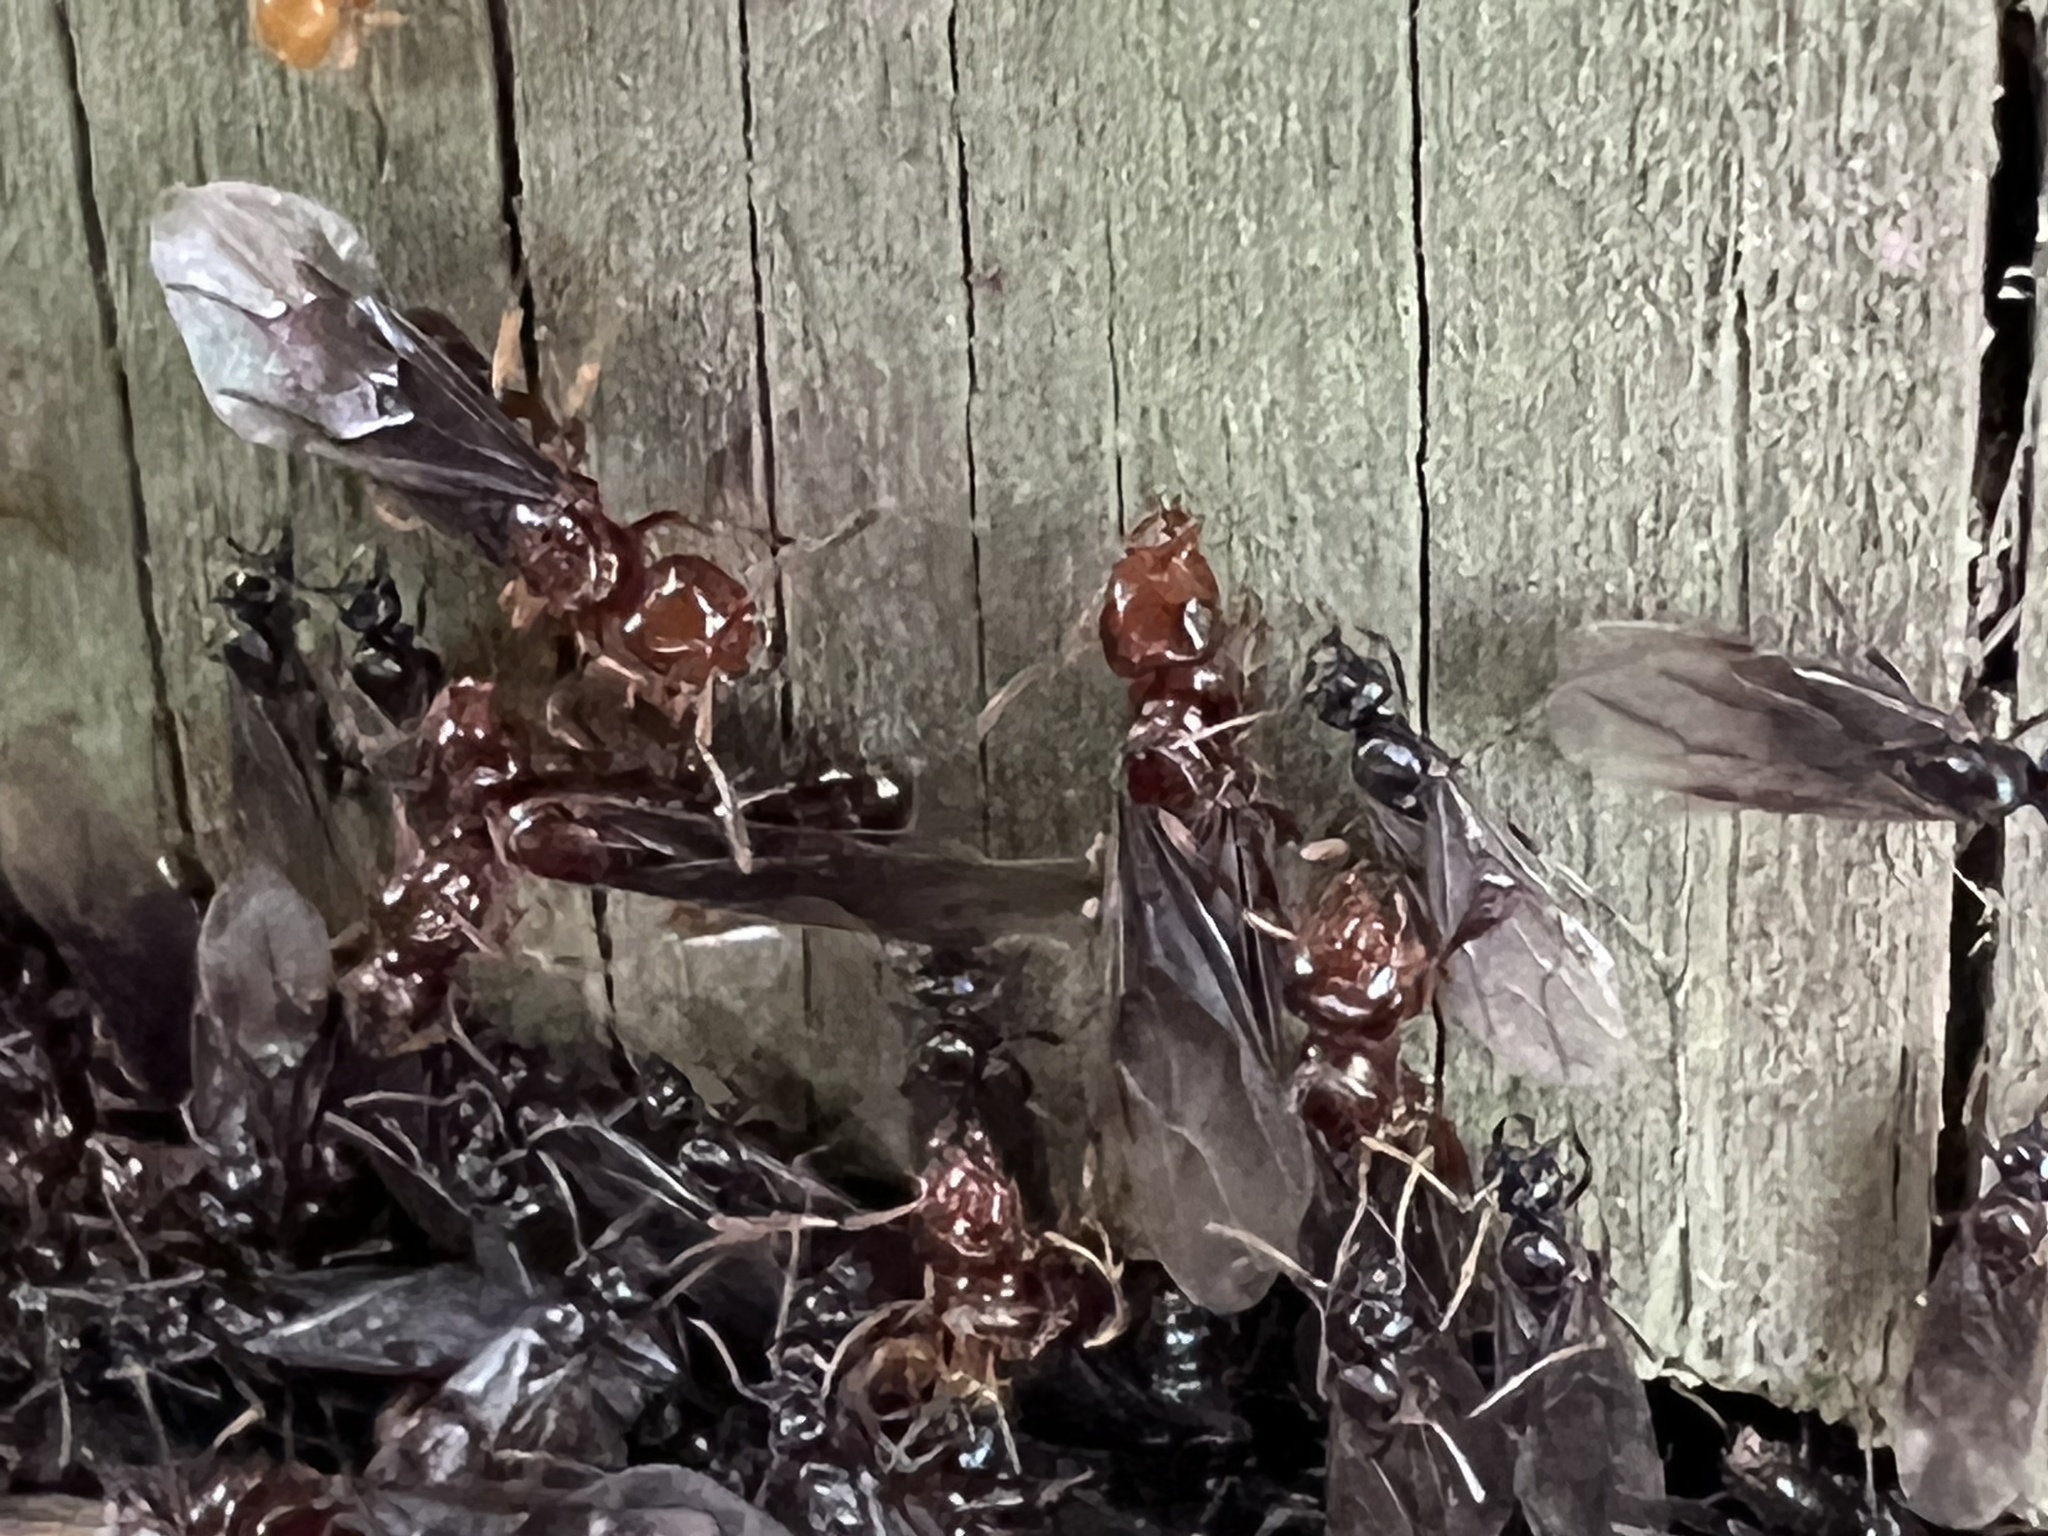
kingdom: Animalia
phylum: Arthropoda
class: Insecta
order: Hymenoptera
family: Formicidae
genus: Lasius
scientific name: Lasius claviger
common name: Common citronella ant
